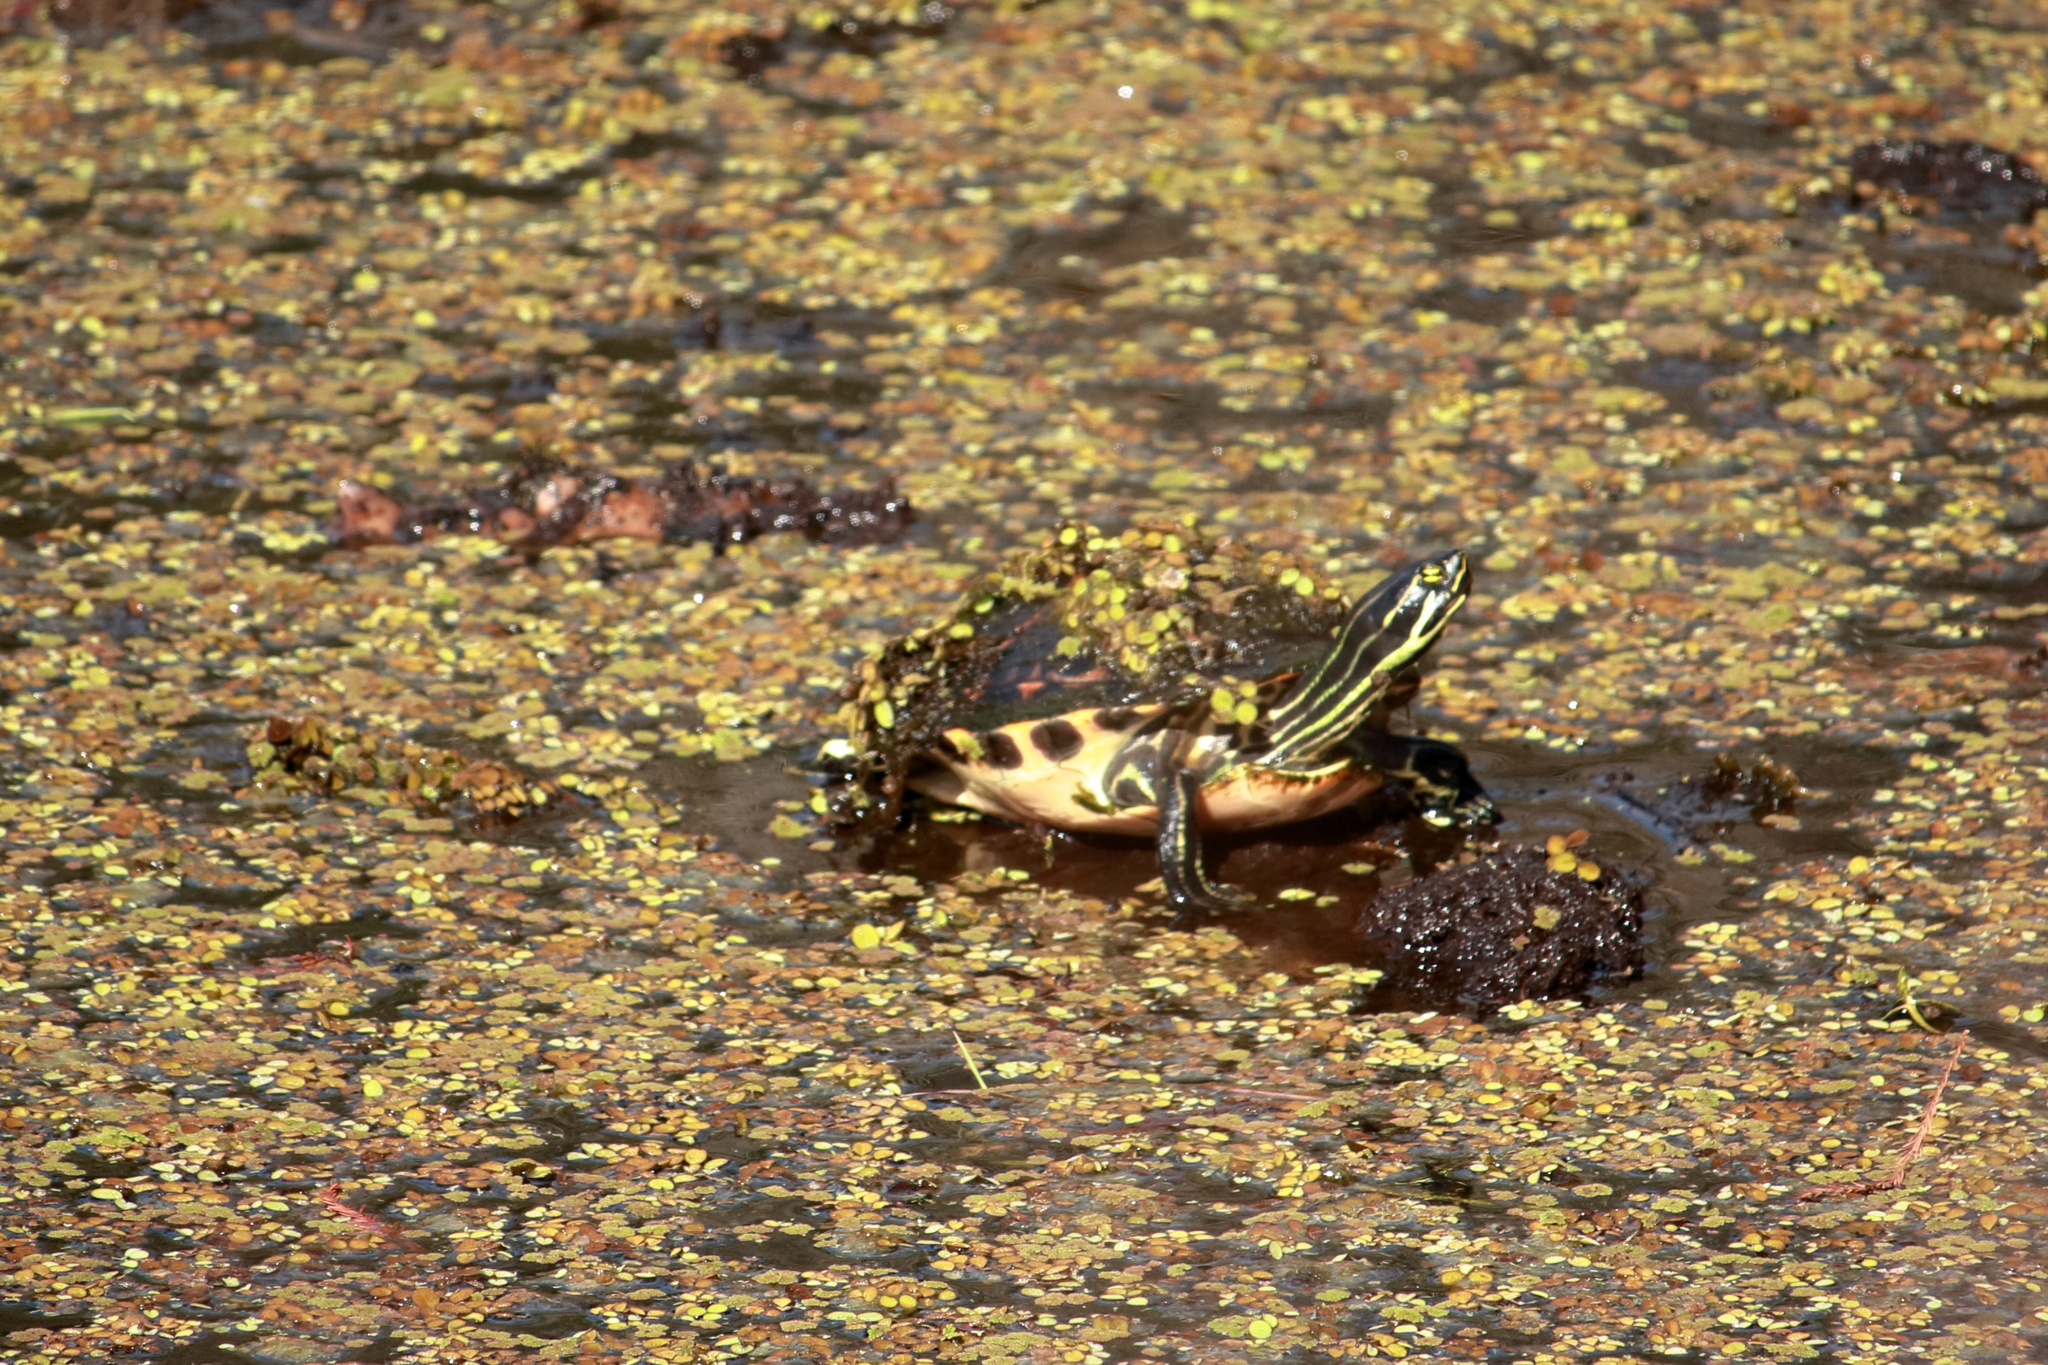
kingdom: Animalia
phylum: Chordata
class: Testudines
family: Emydidae
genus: Pseudemys
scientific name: Pseudemys nelsoni
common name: Florida red-bellied turtle
